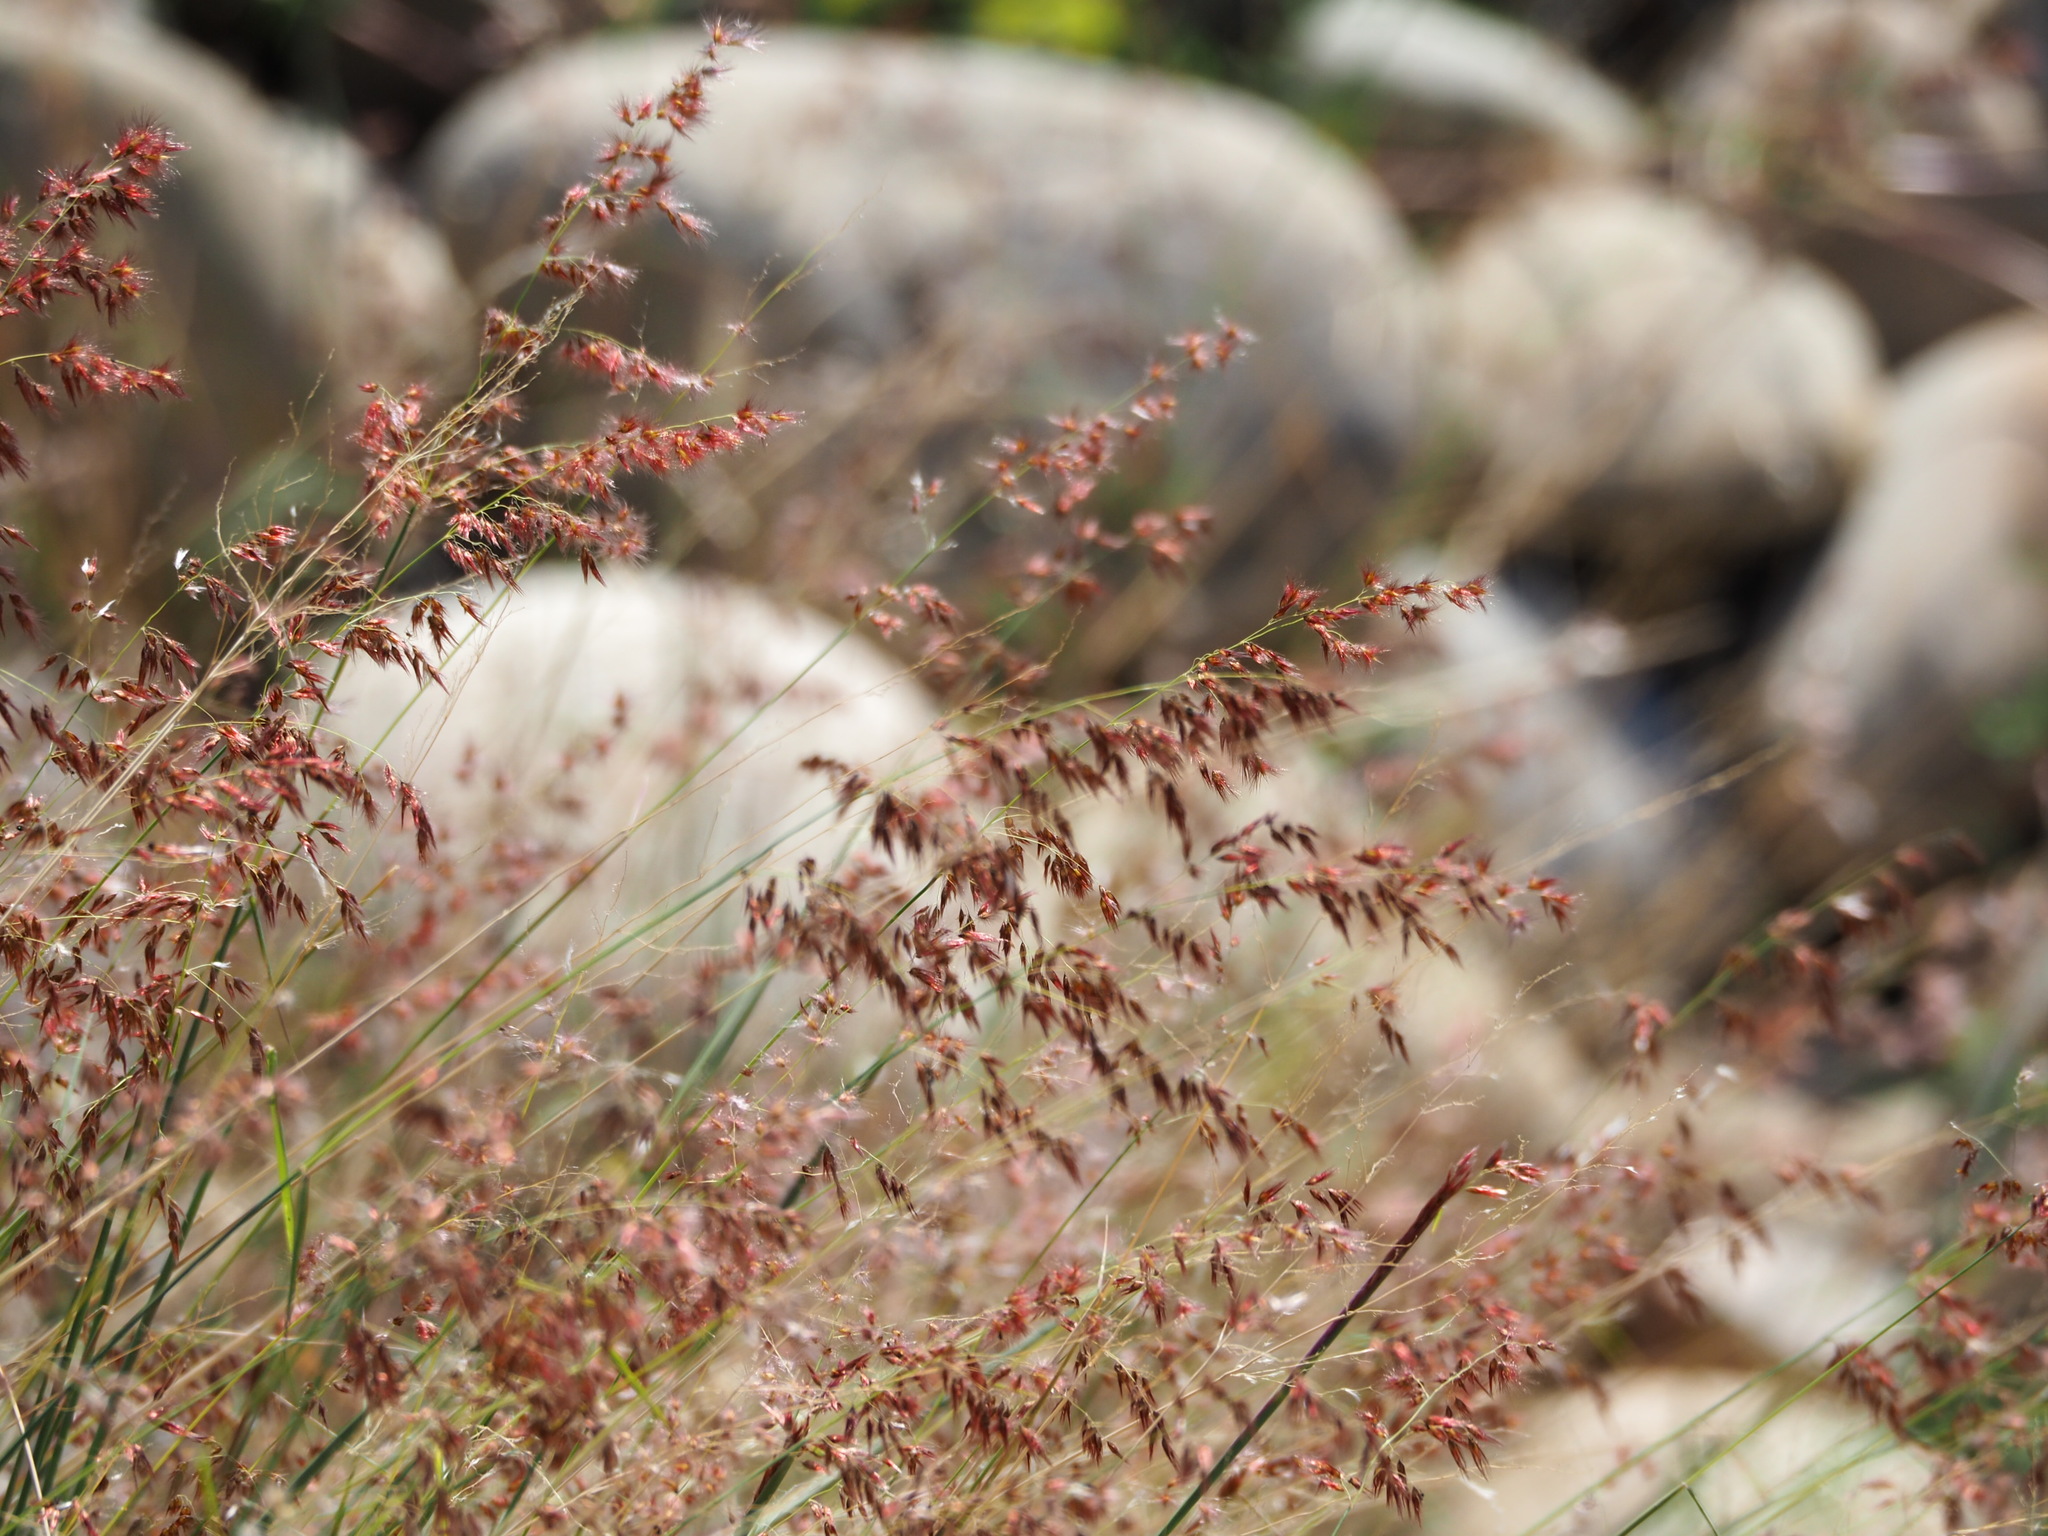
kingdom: Plantae
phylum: Tracheophyta
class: Liliopsida
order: Poales
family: Poaceae
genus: Melinis
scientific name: Melinis repens
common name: Rose natal grass
